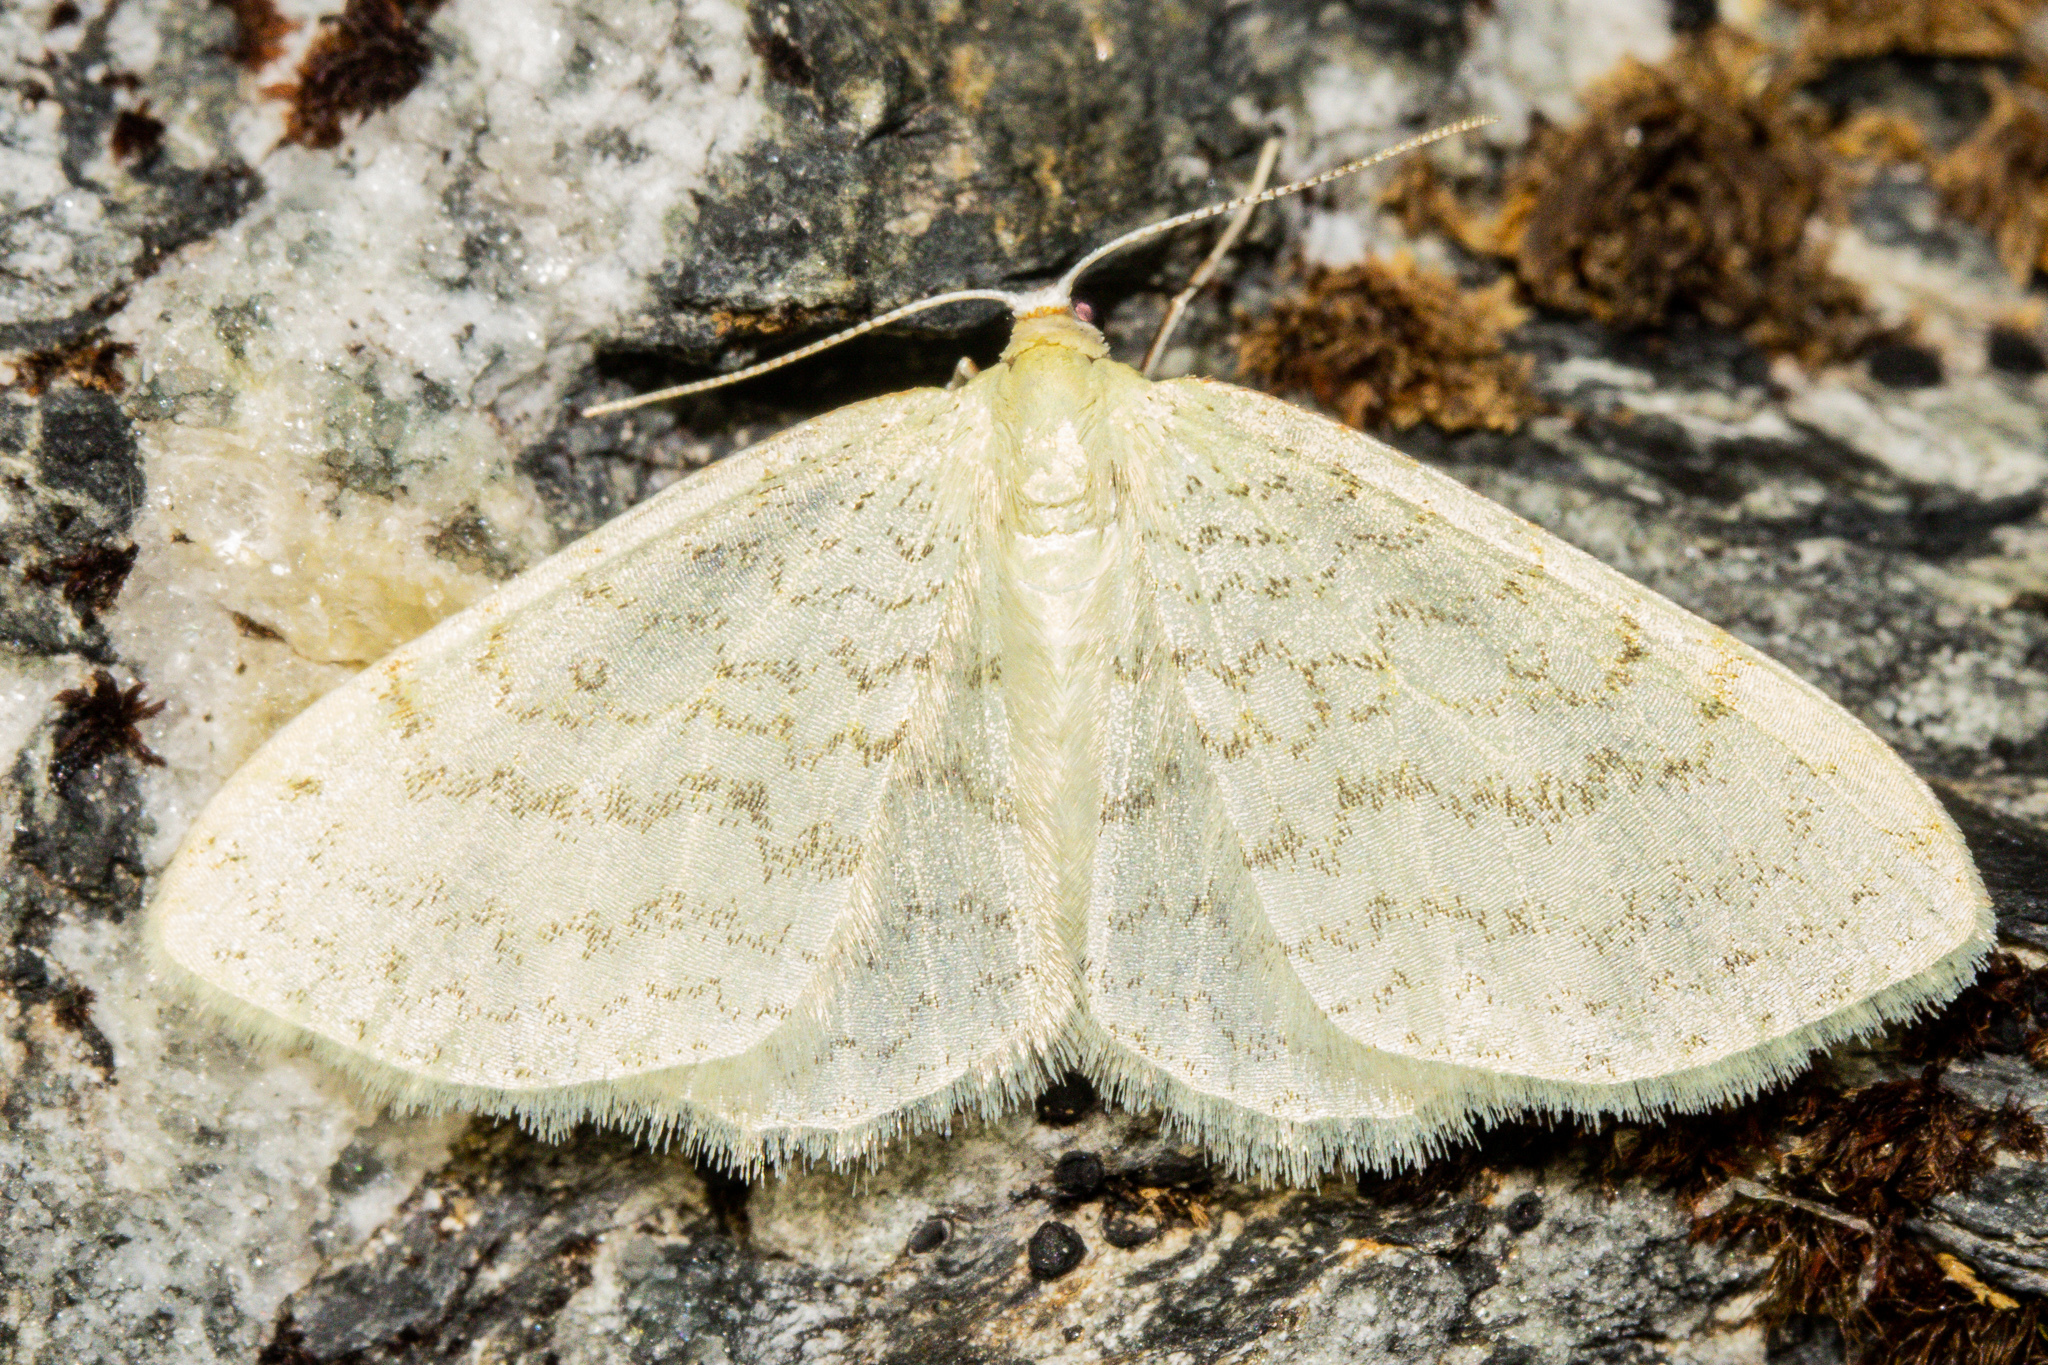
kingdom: Animalia
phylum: Arthropoda
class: Insecta
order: Lepidoptera
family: Geometridae
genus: Epiphryne
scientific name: Epiphryne undosata
